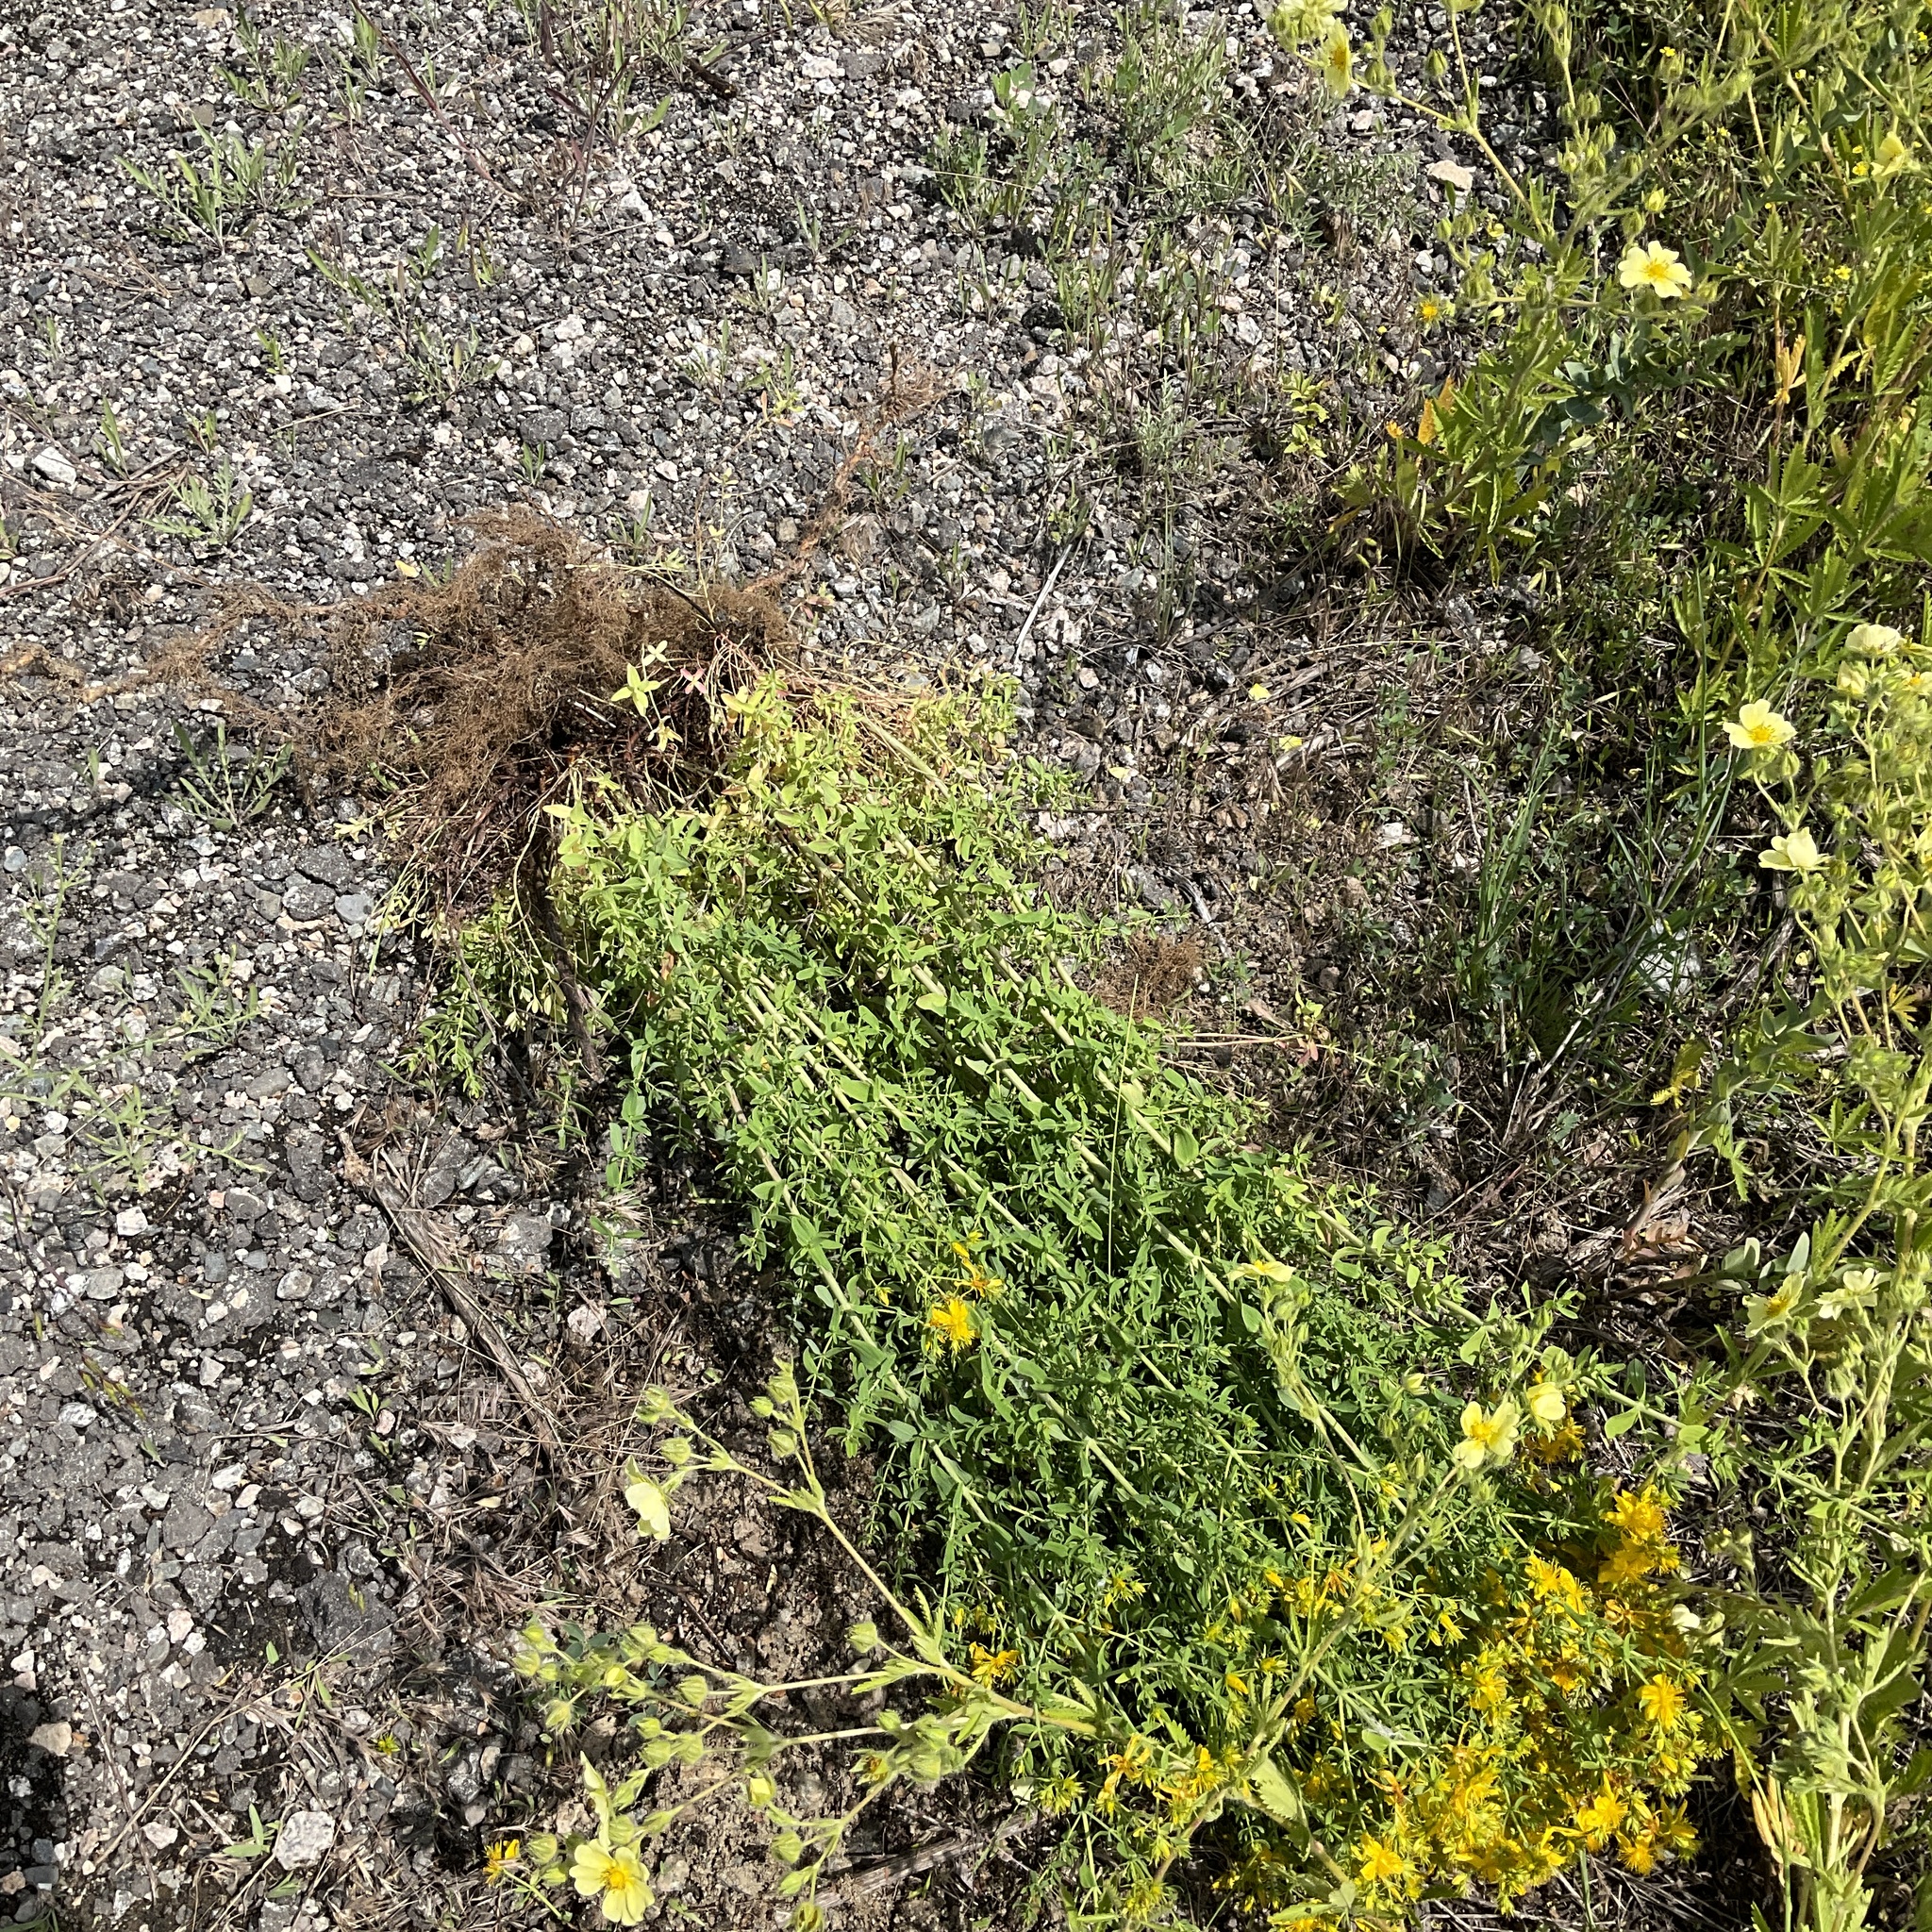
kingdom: Plantae
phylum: Tracheophyta
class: Magnoliopsida
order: Malpighiales
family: Hypericaceae
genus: Hypericum
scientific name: Hypericum perforatum
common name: Common st. johnswort
